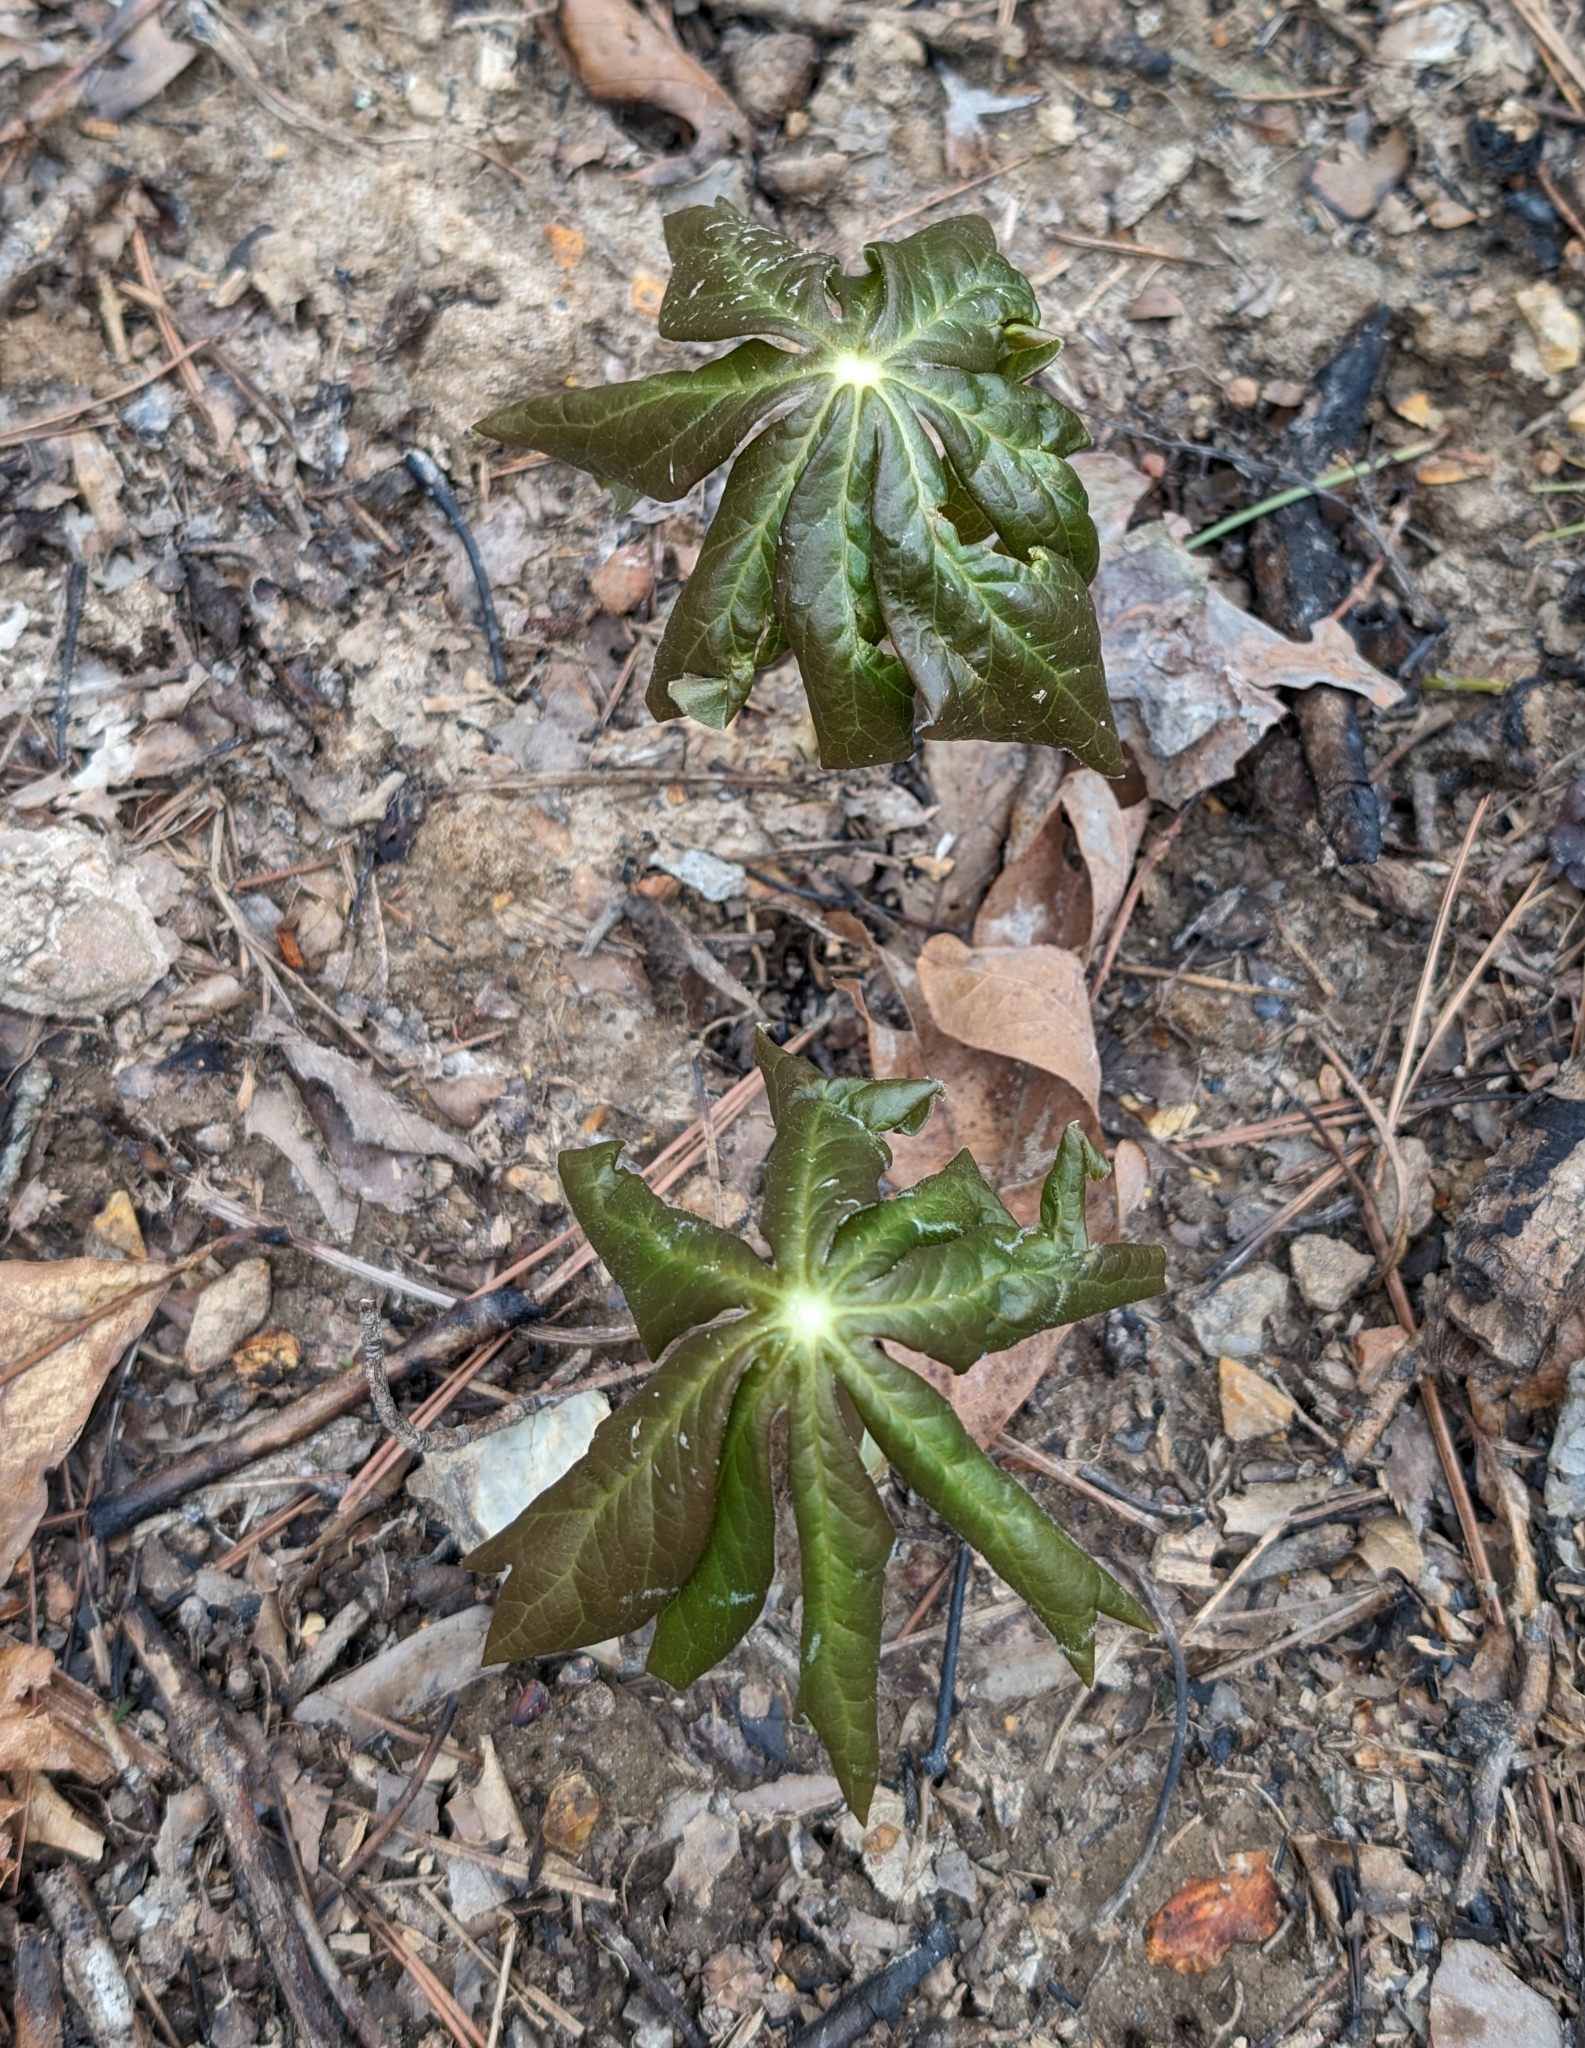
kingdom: Plantae
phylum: Tracheophyta
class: Magnoliopsida
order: Ranunculales
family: Berberidaceae
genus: Podophyllum
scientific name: Podophyllum peltatum
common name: Wild mandrake
